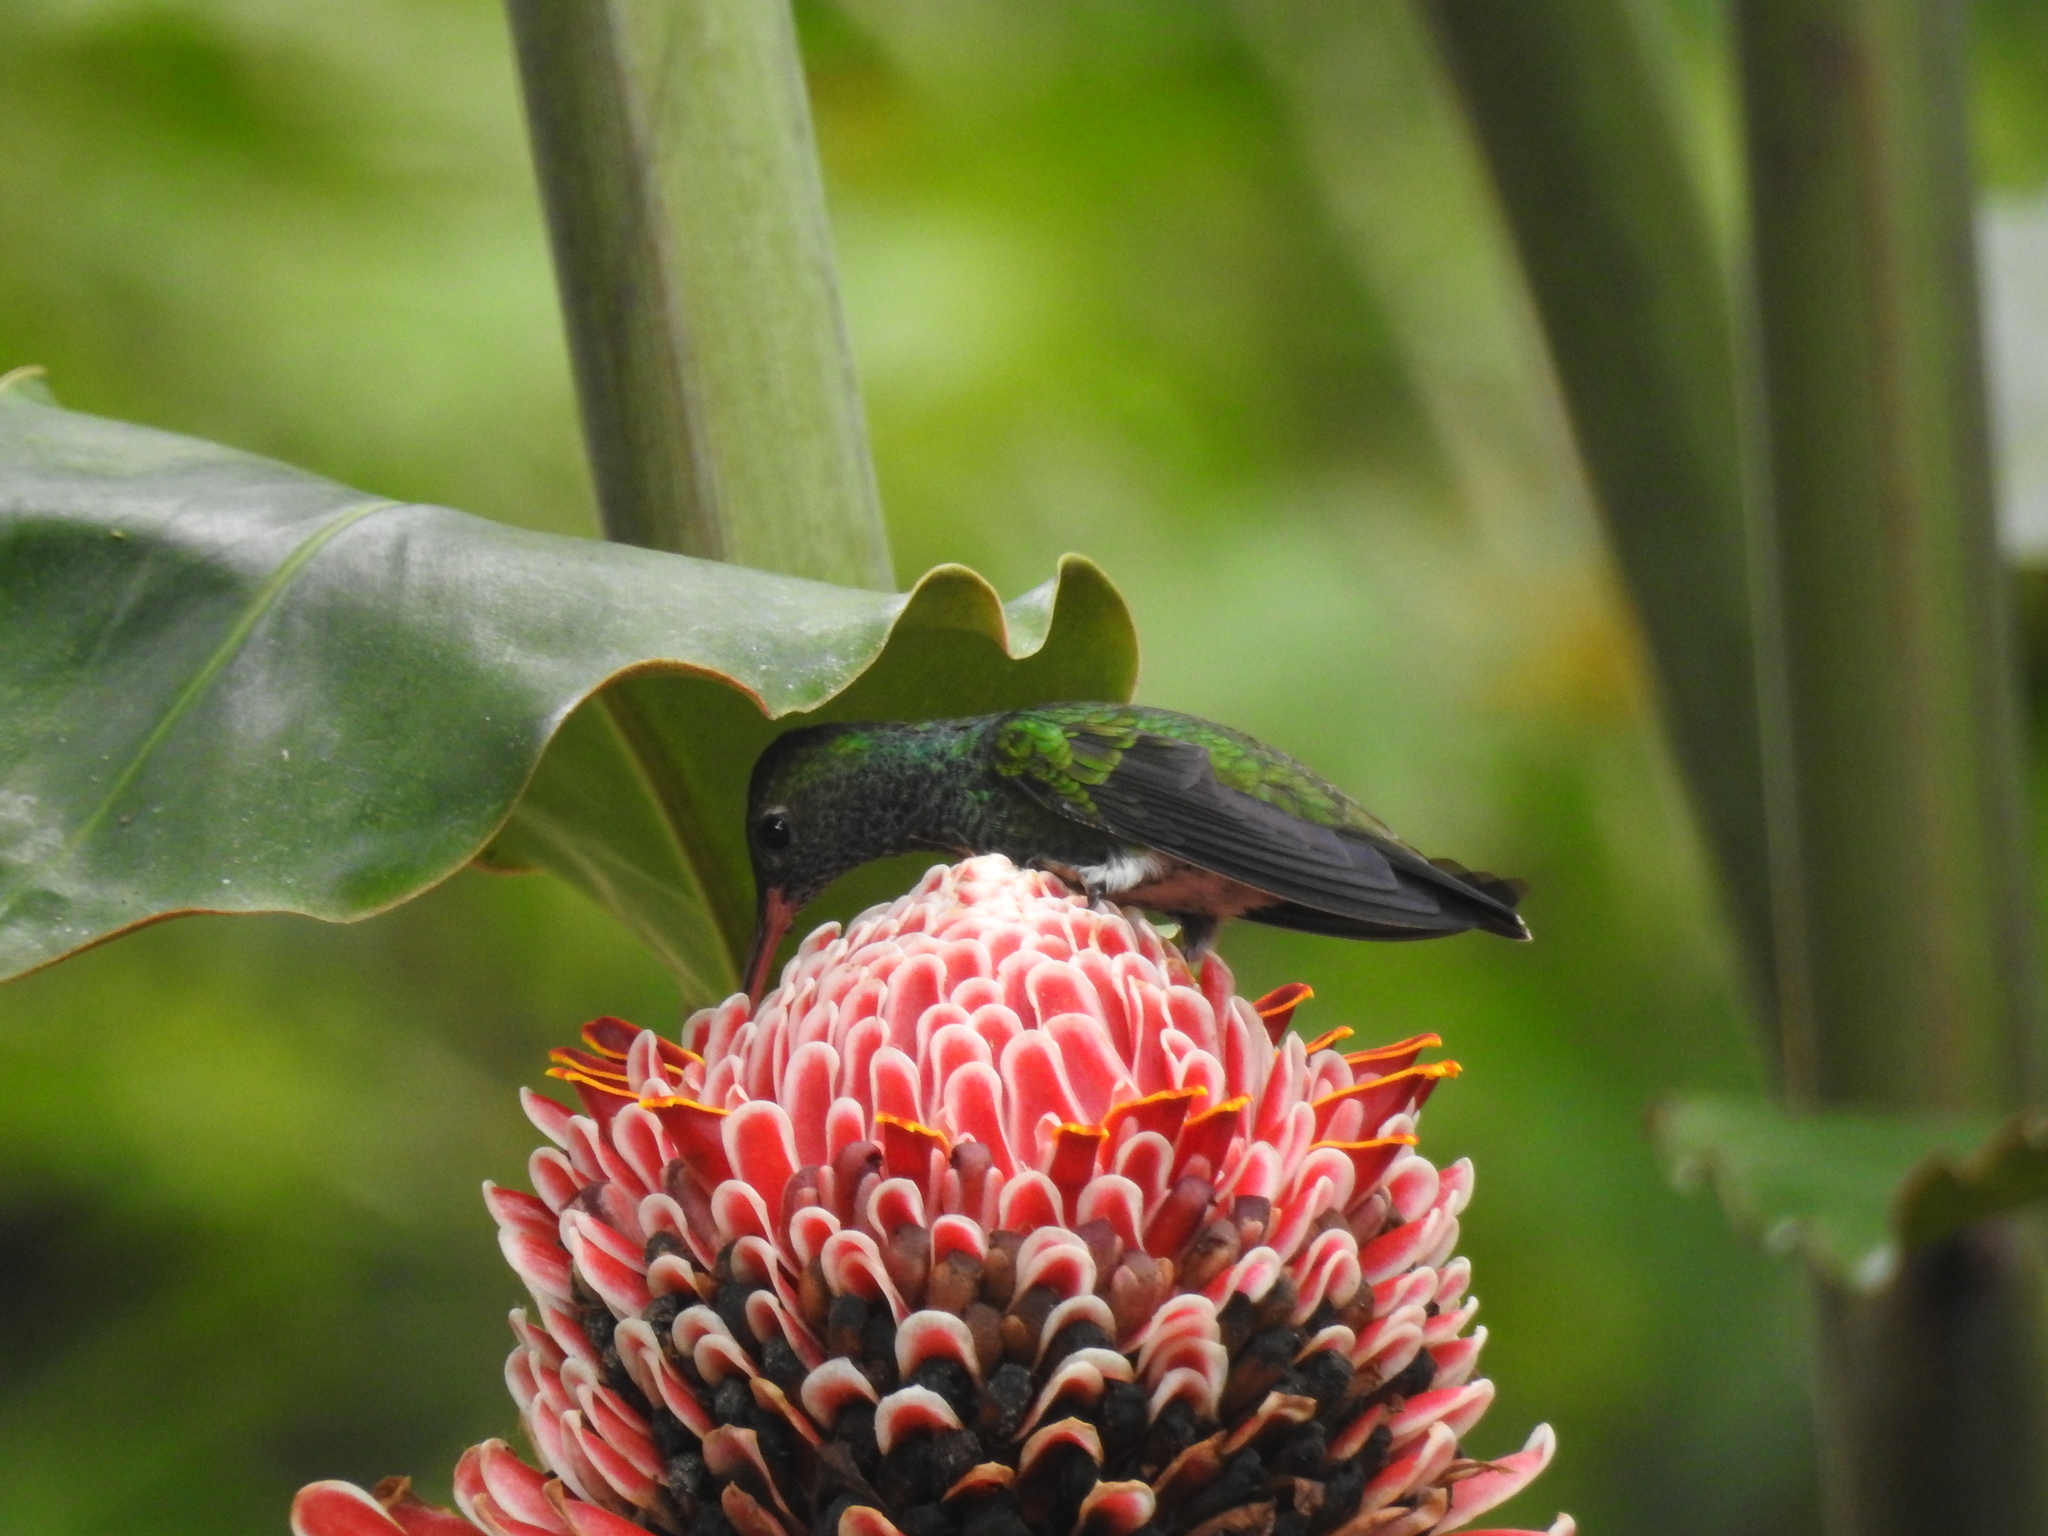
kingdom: Animalia
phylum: Chordata
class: Aves
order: Apodiformes
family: Trochilidae
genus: Chionomesa
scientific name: Chionomesa fimbriata
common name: Glittering-throated emerald
